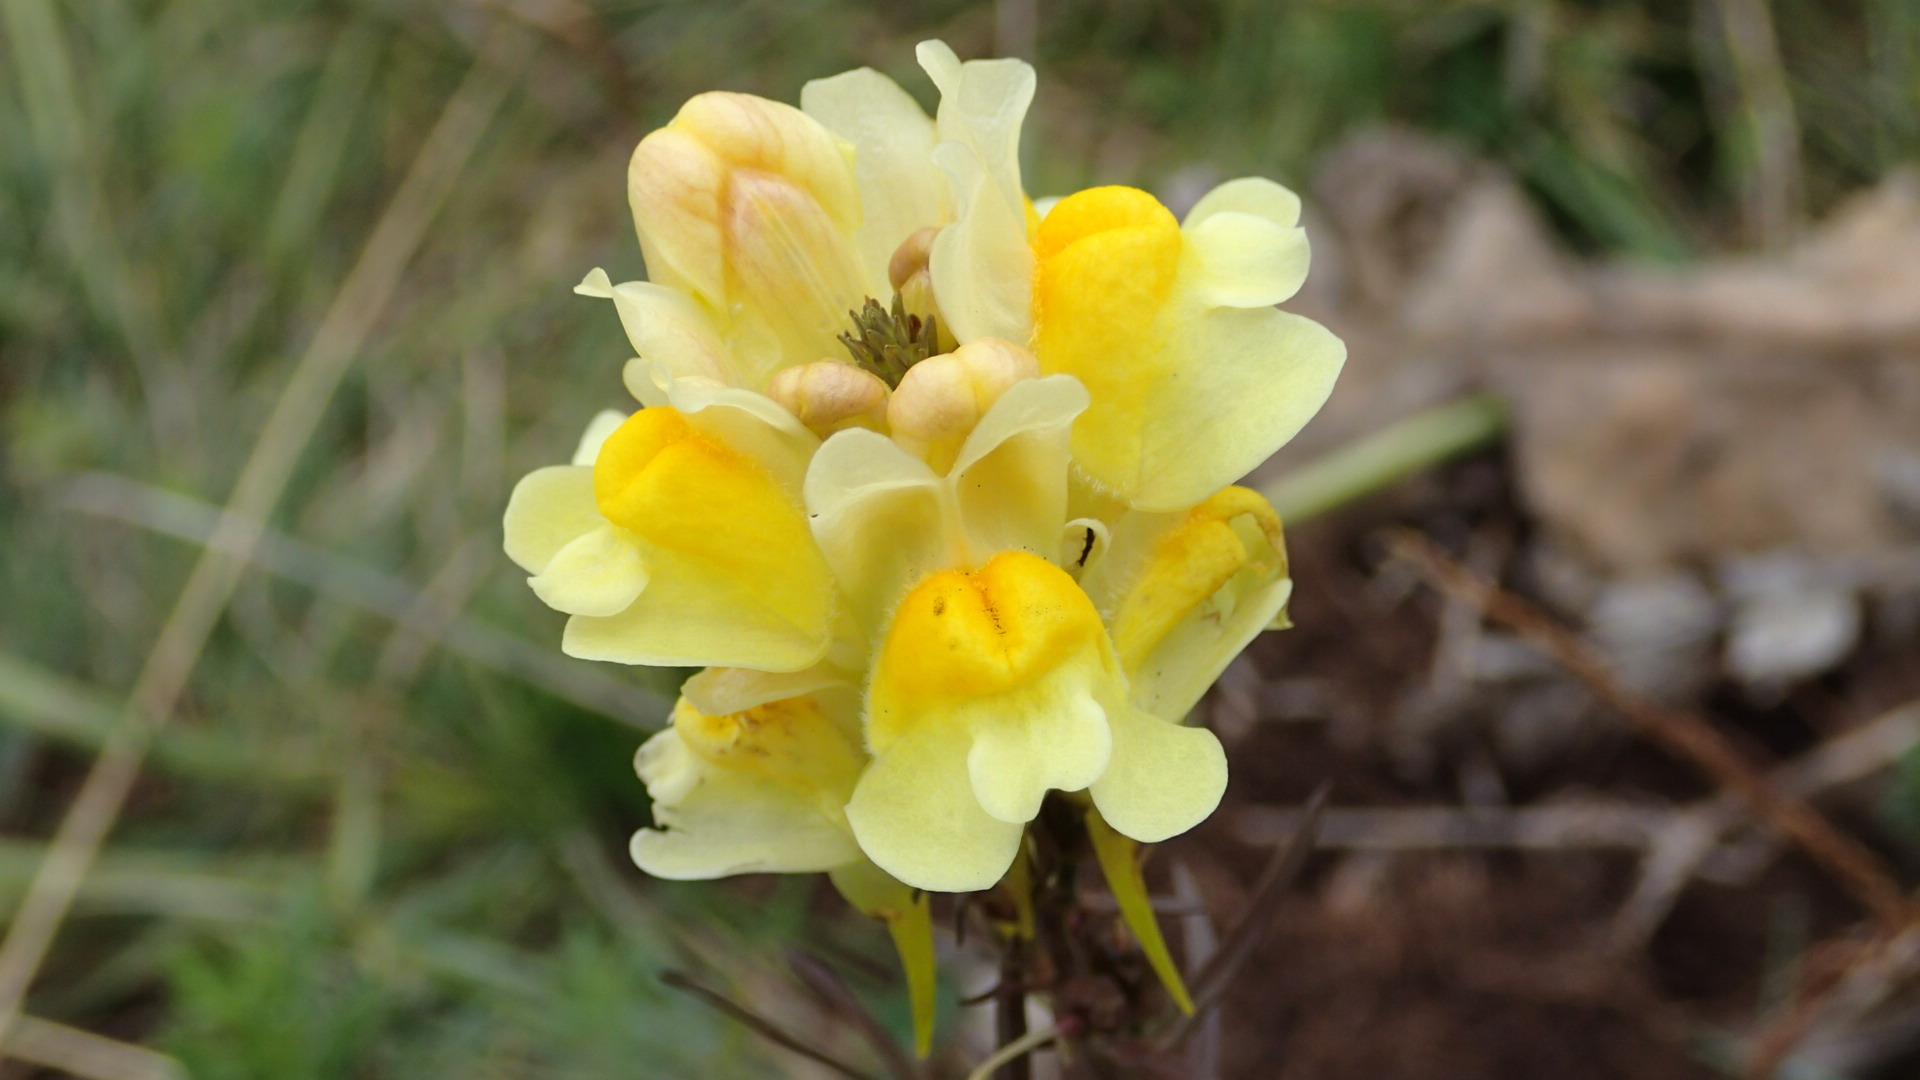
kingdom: Plantae
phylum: Tracheophyta
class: Magnoliopsida
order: Lamiales
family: Plantaginaceae
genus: Linaria
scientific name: Linaria vulgaris
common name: Butter and eggs
